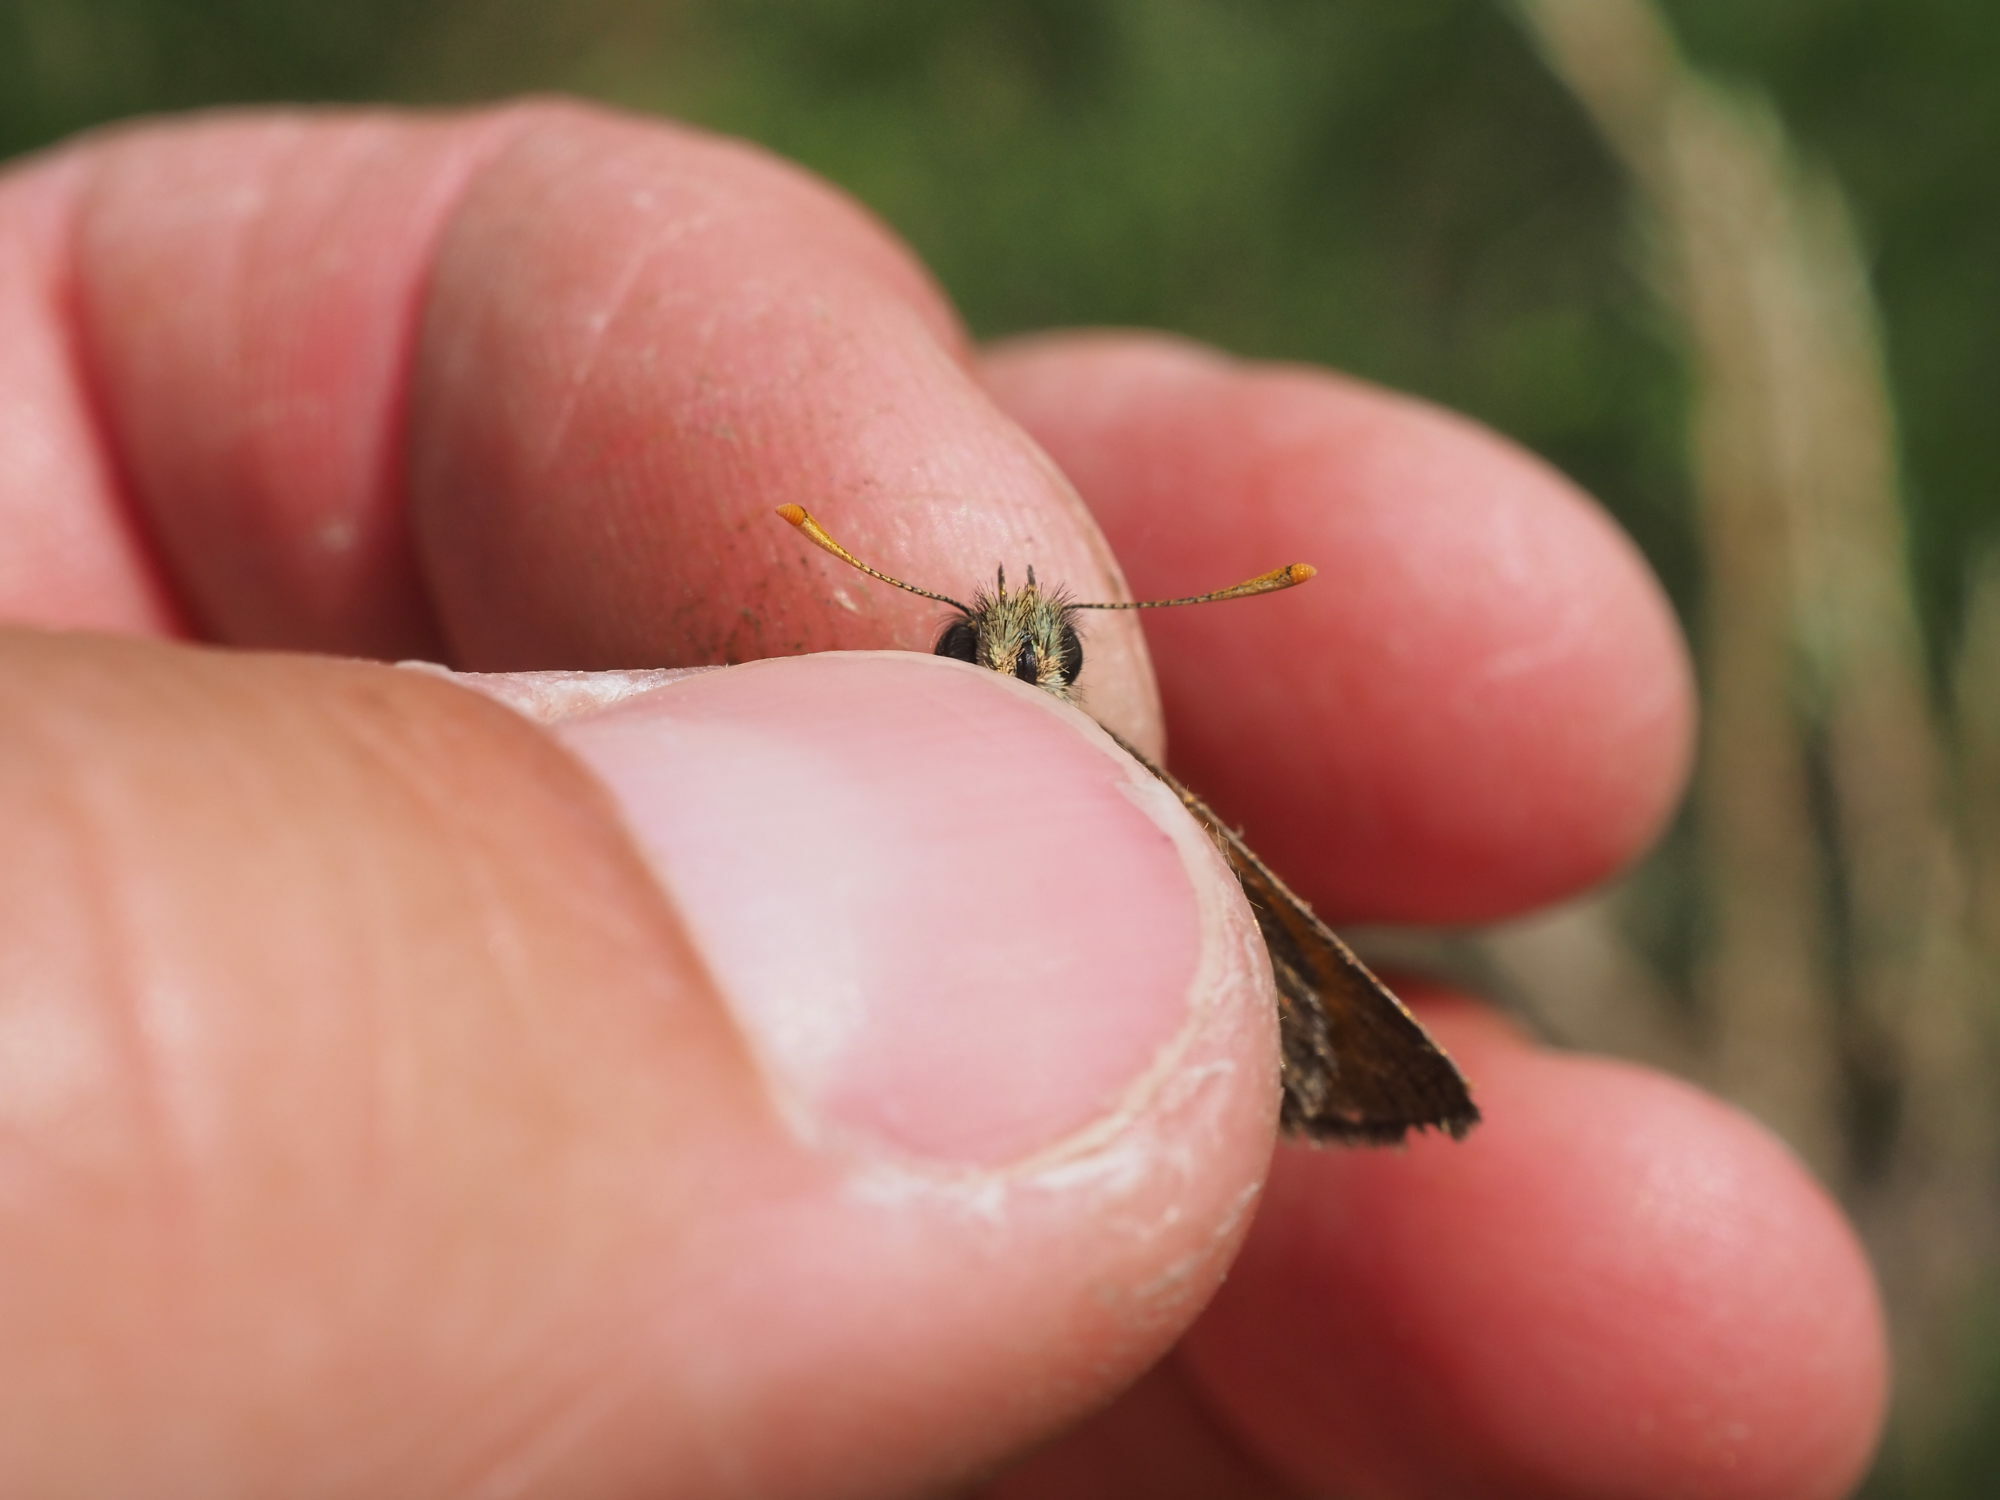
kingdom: Animalia
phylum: Arthropoda
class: Insecta
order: Lepidoptera
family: Hesperiidae
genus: Thymelicus
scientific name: Thymelicus sylvestris
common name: Small skipper
